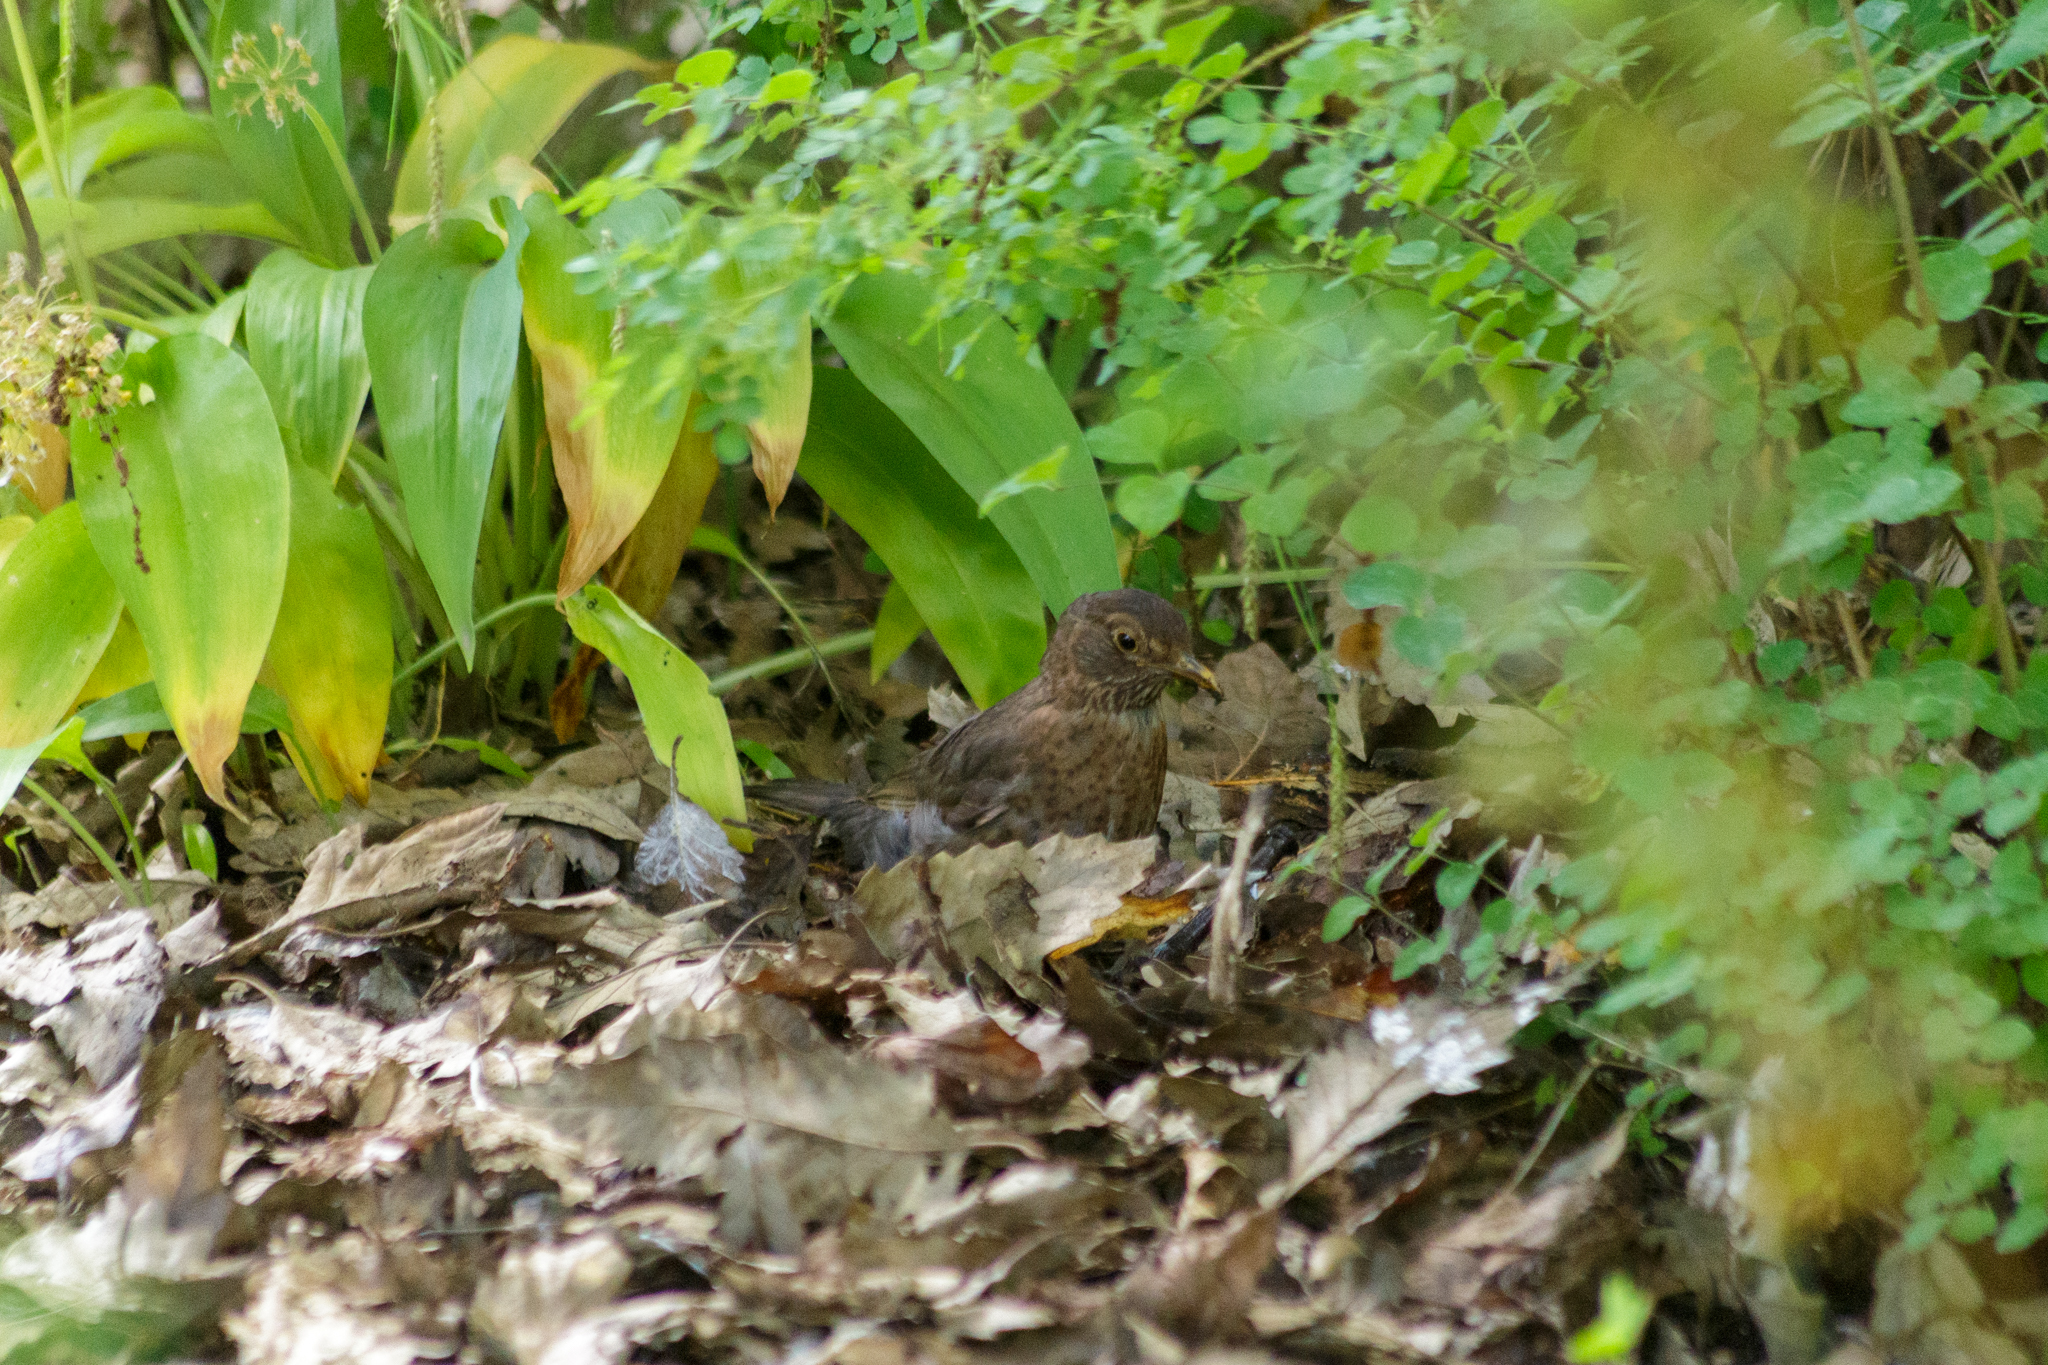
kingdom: Animalia
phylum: Chordata
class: Aves
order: Passeriformes
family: Turdidae
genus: Turdus
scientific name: Turdus merula
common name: Common blackbird
